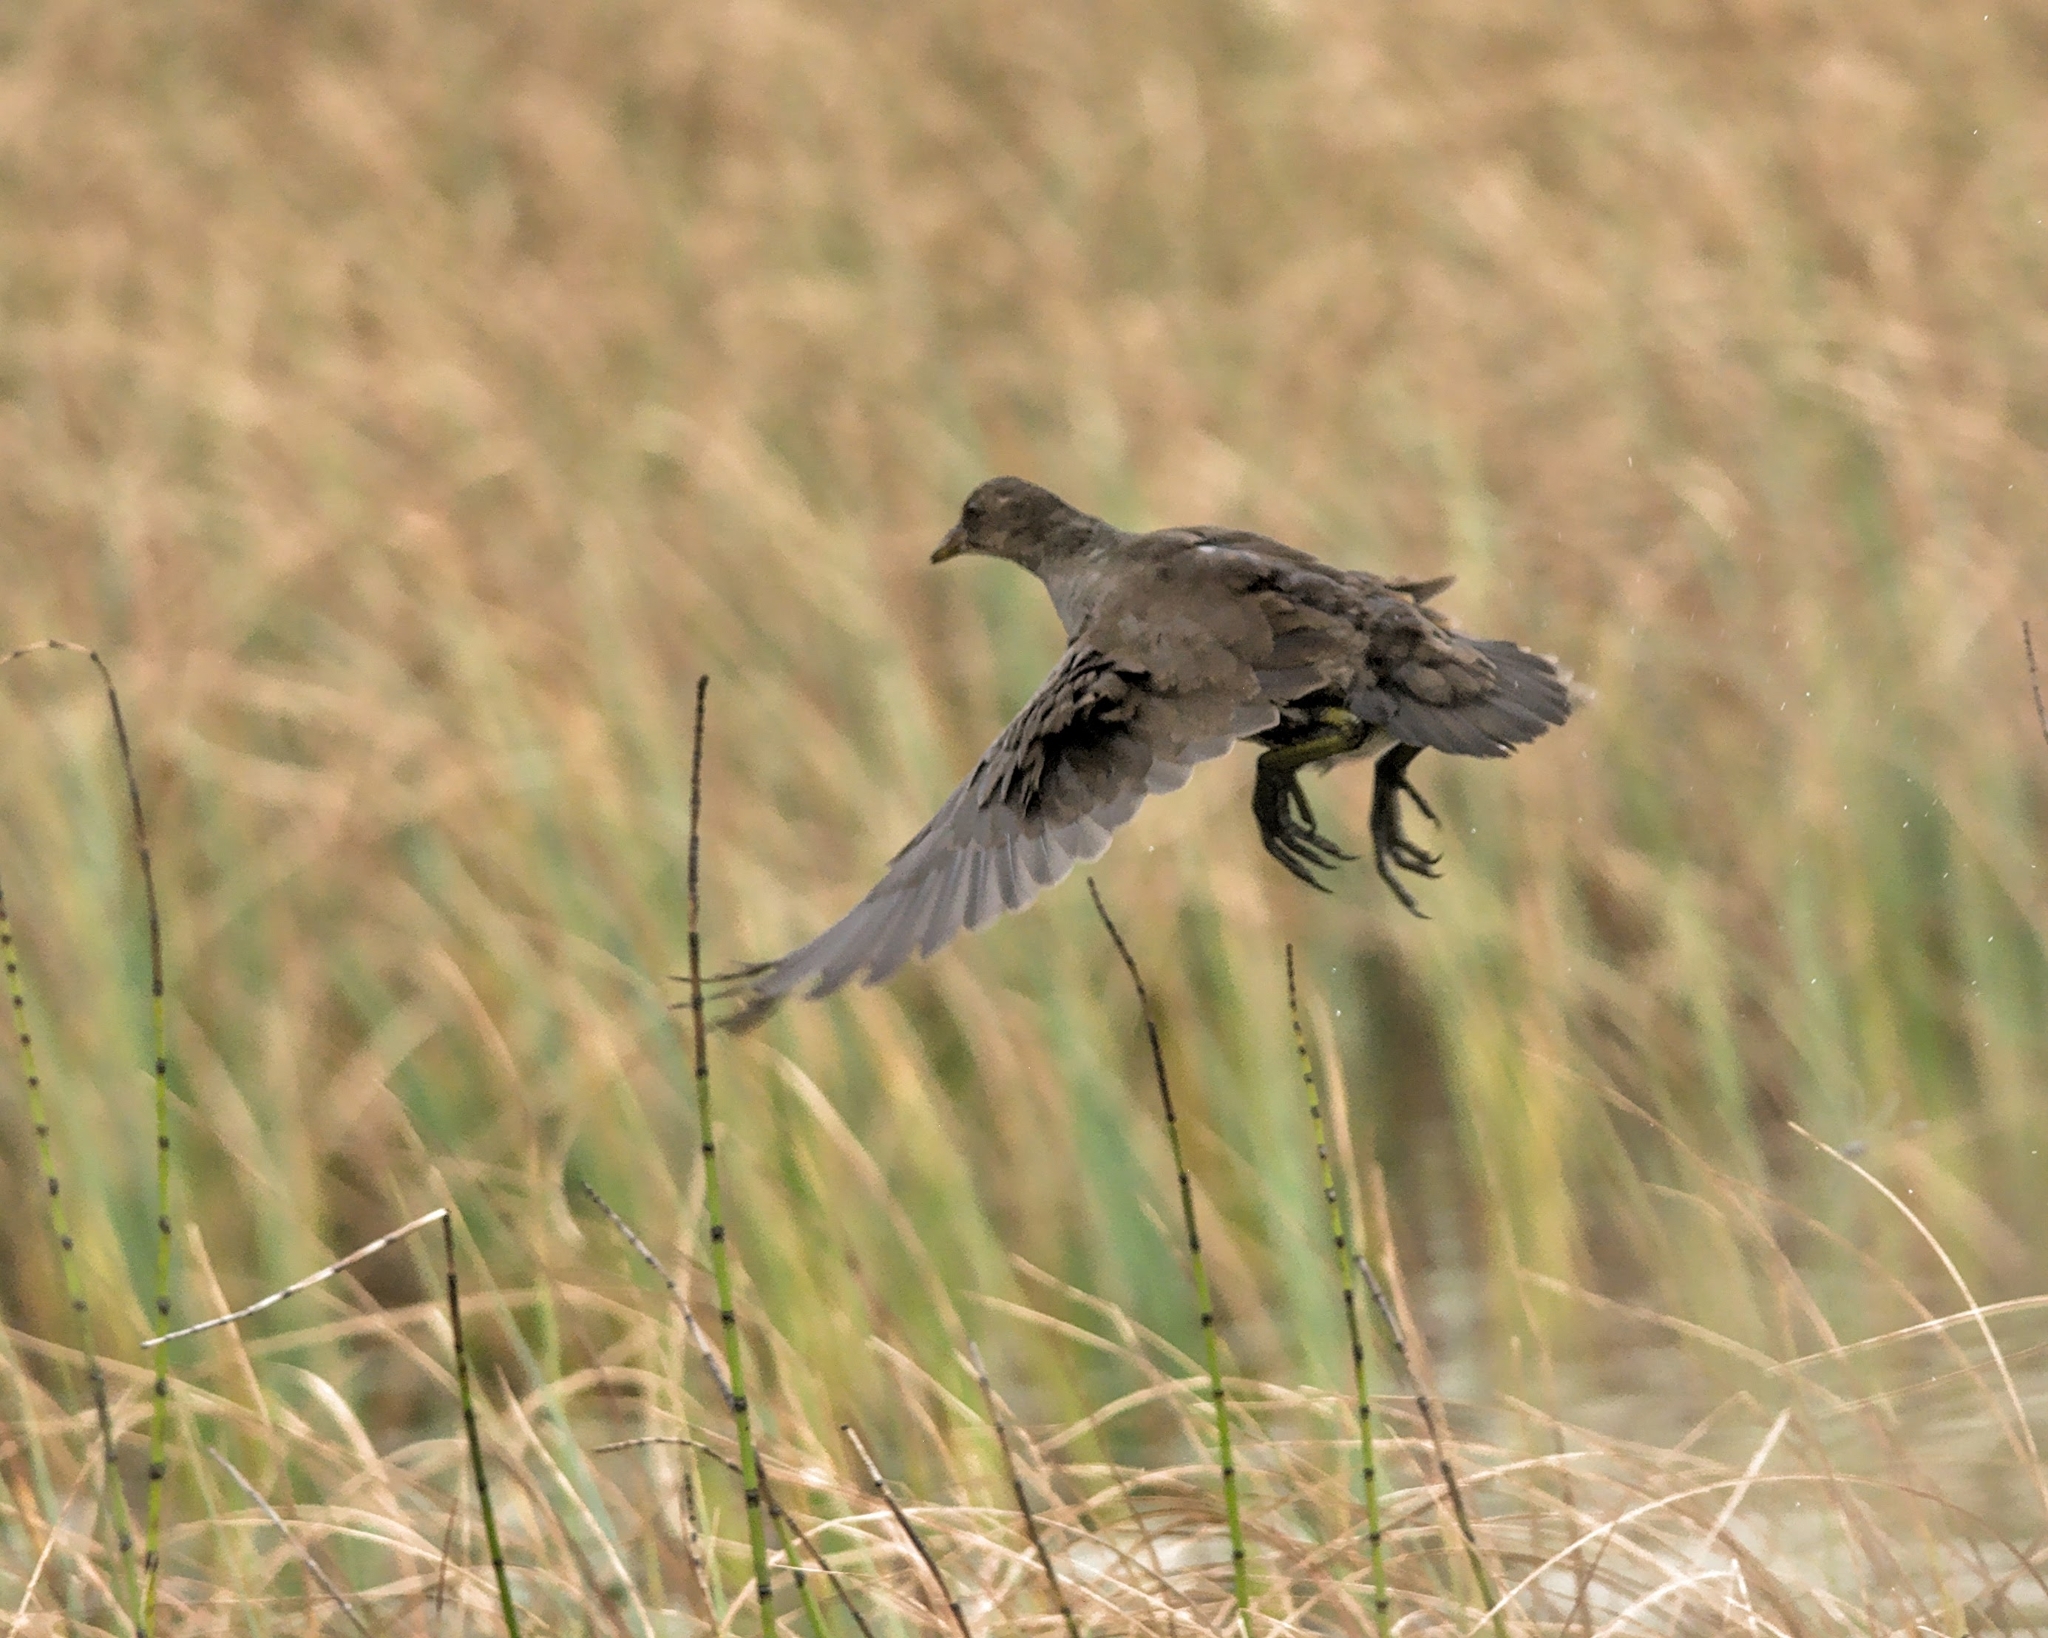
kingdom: Animalia
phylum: Chordata
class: Aves
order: Gruiformes
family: Rallidae
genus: Gallinula
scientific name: Gallinula chloropus
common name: Common moorhen
